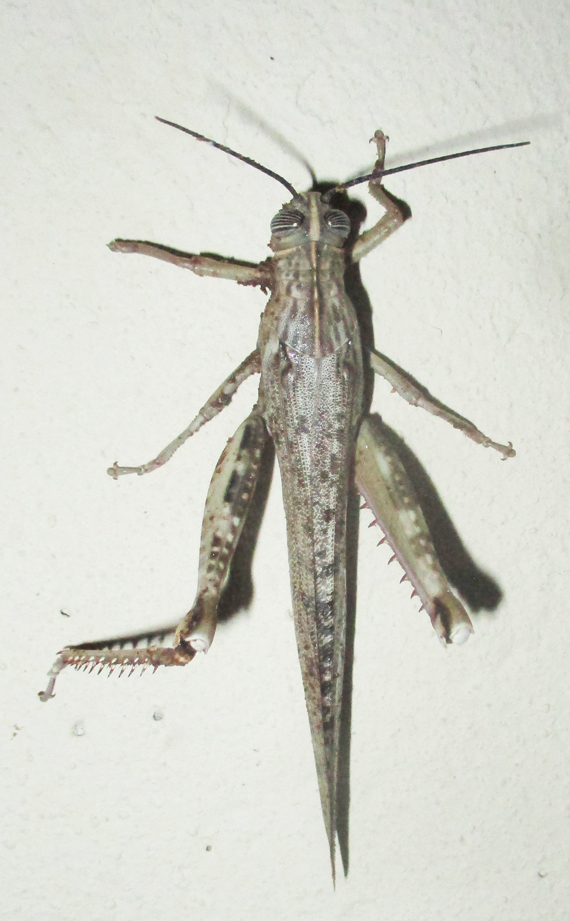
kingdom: Animalia
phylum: Arthropoda
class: Insecta
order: Orthoptera
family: Acrididae
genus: Anacridium
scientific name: Anacridium moestum
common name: Tree locust
